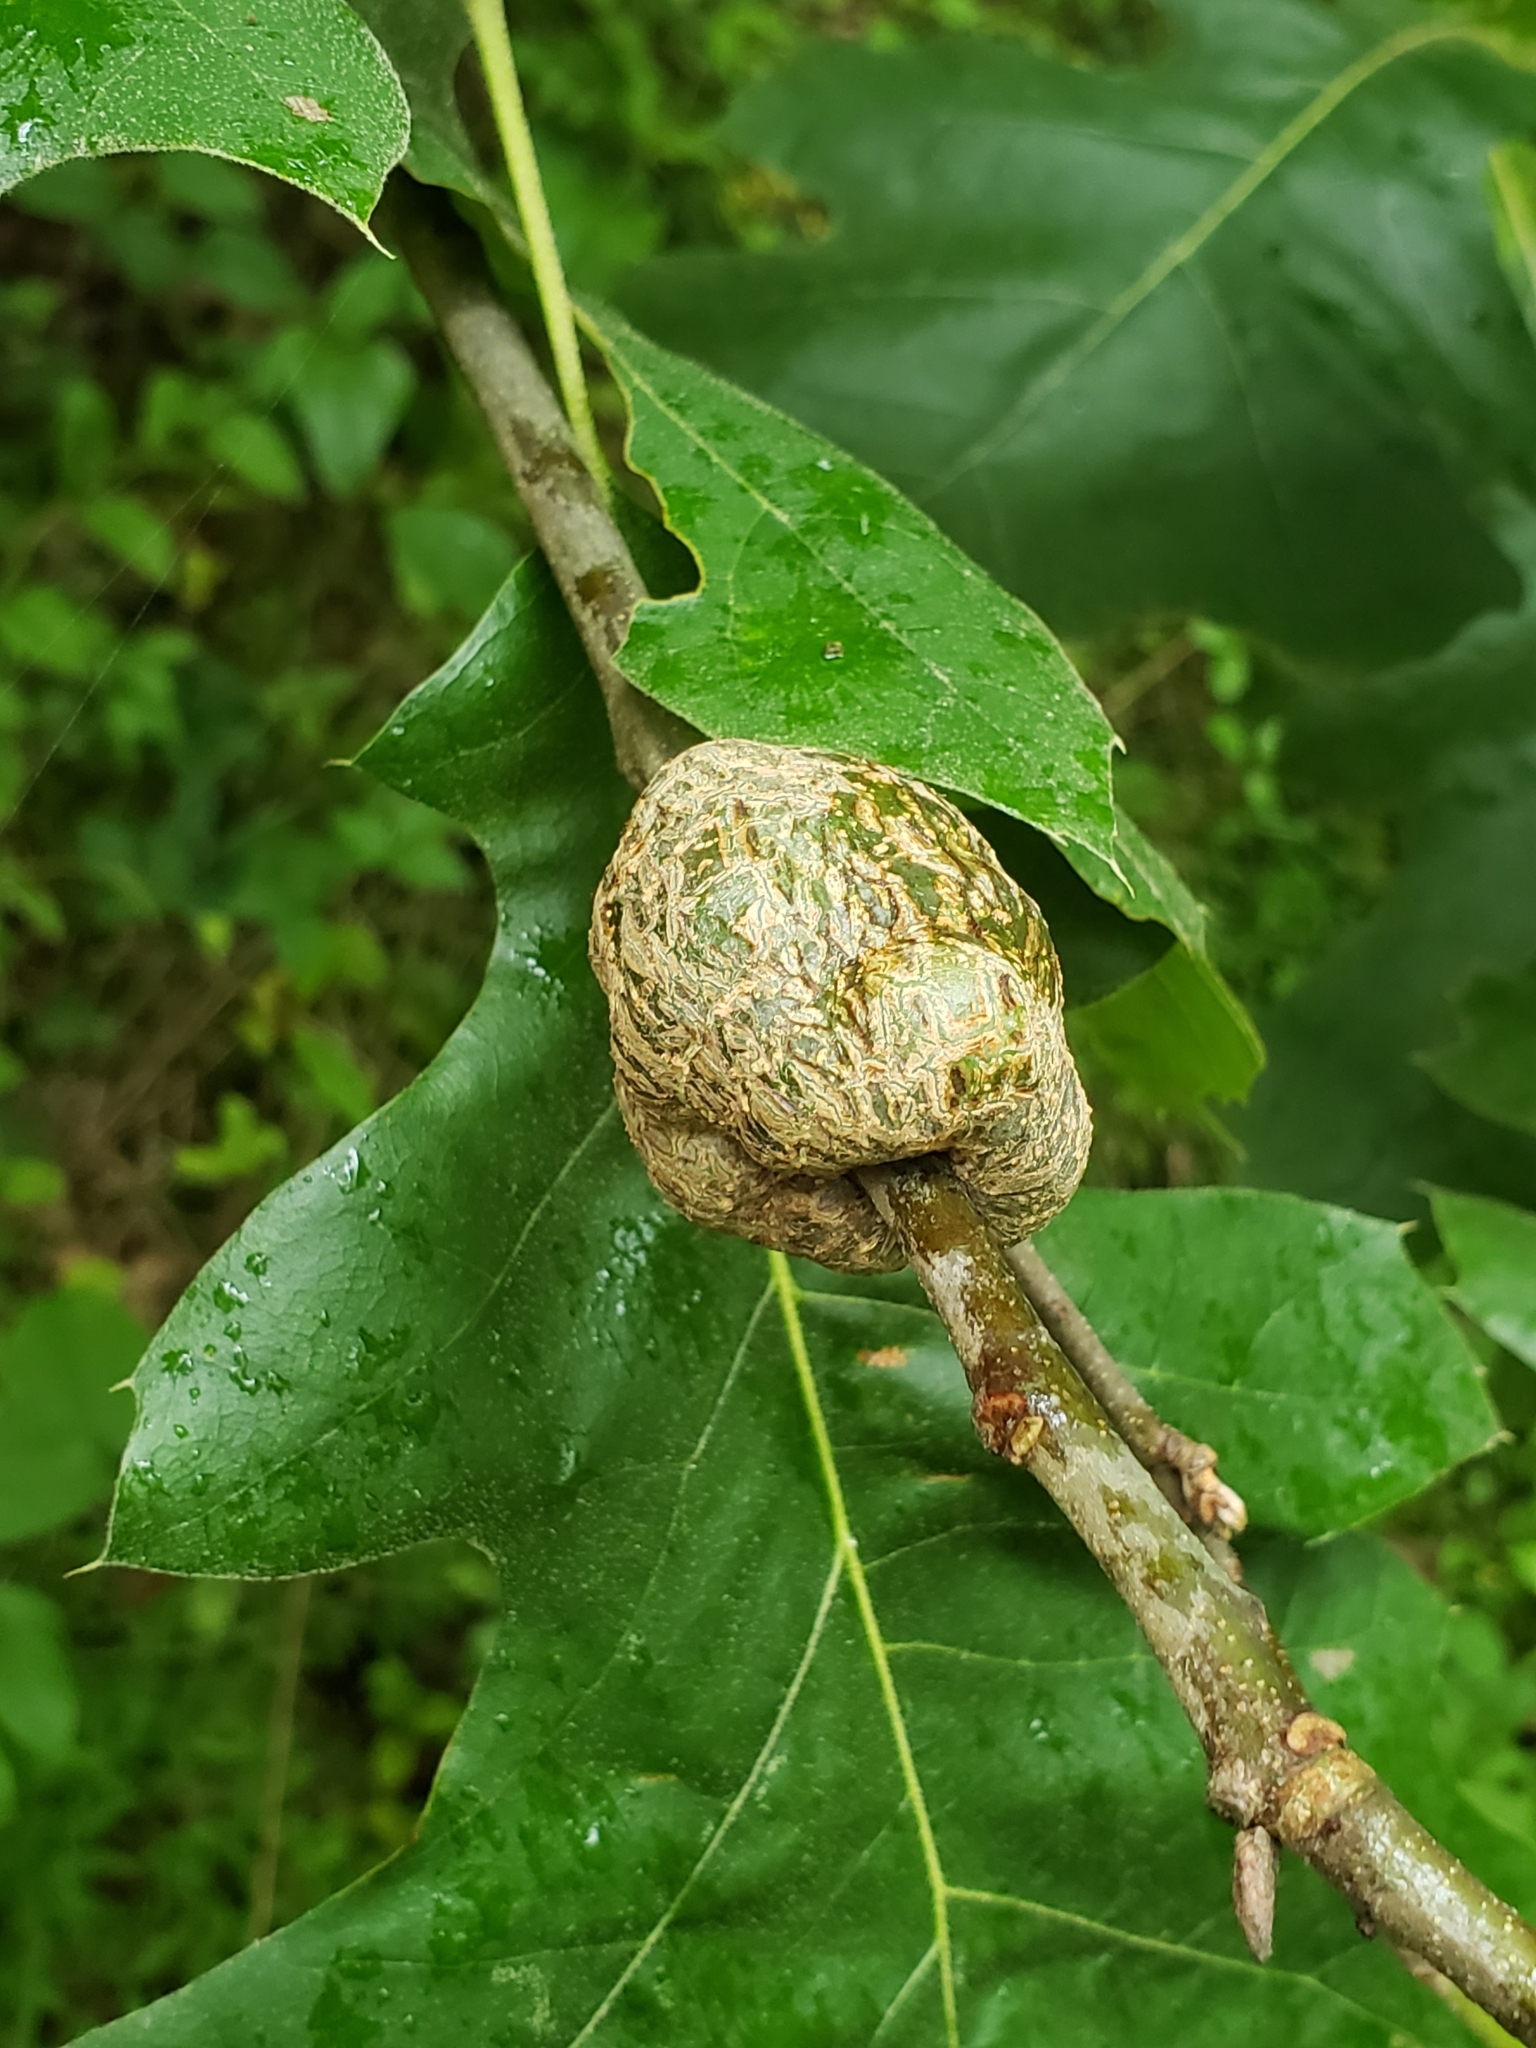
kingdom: Plantae
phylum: Tracheophyta
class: Magnoliopsida
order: Fagales
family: Fagaceae
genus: Quercus
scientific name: Quercus velutina
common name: Black oak
